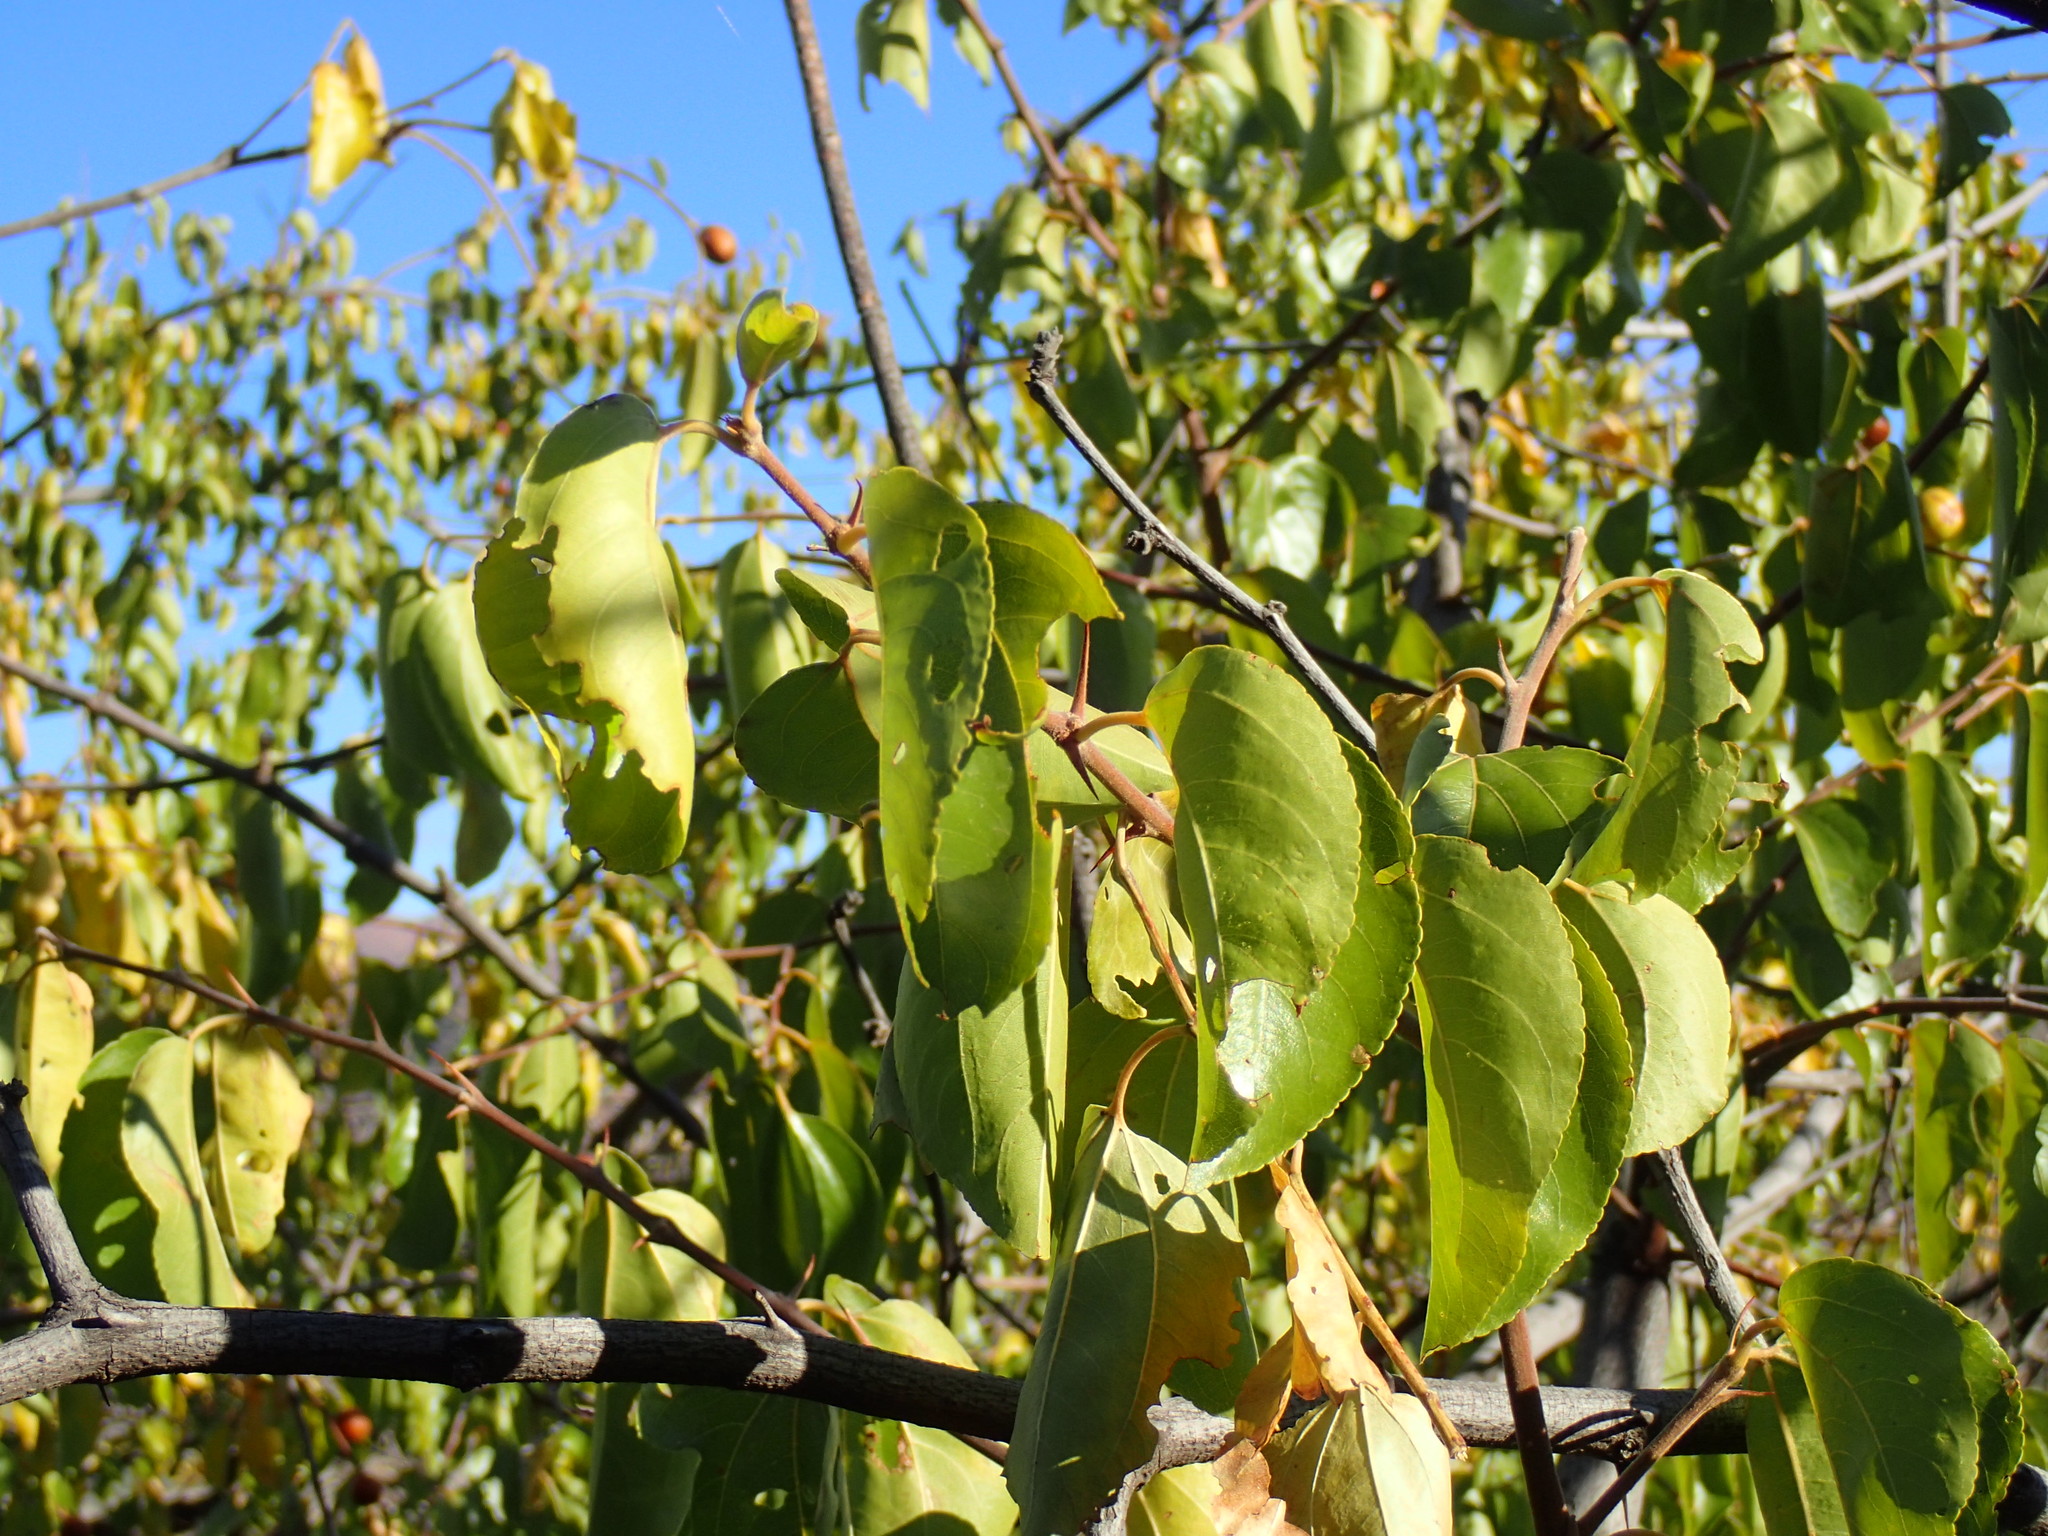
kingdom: Plantae
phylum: Tracheophyta
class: Magnoliopsida
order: Rosales
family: Rhamnaceae
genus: Ziziphus
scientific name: Ziziphus mucronata
